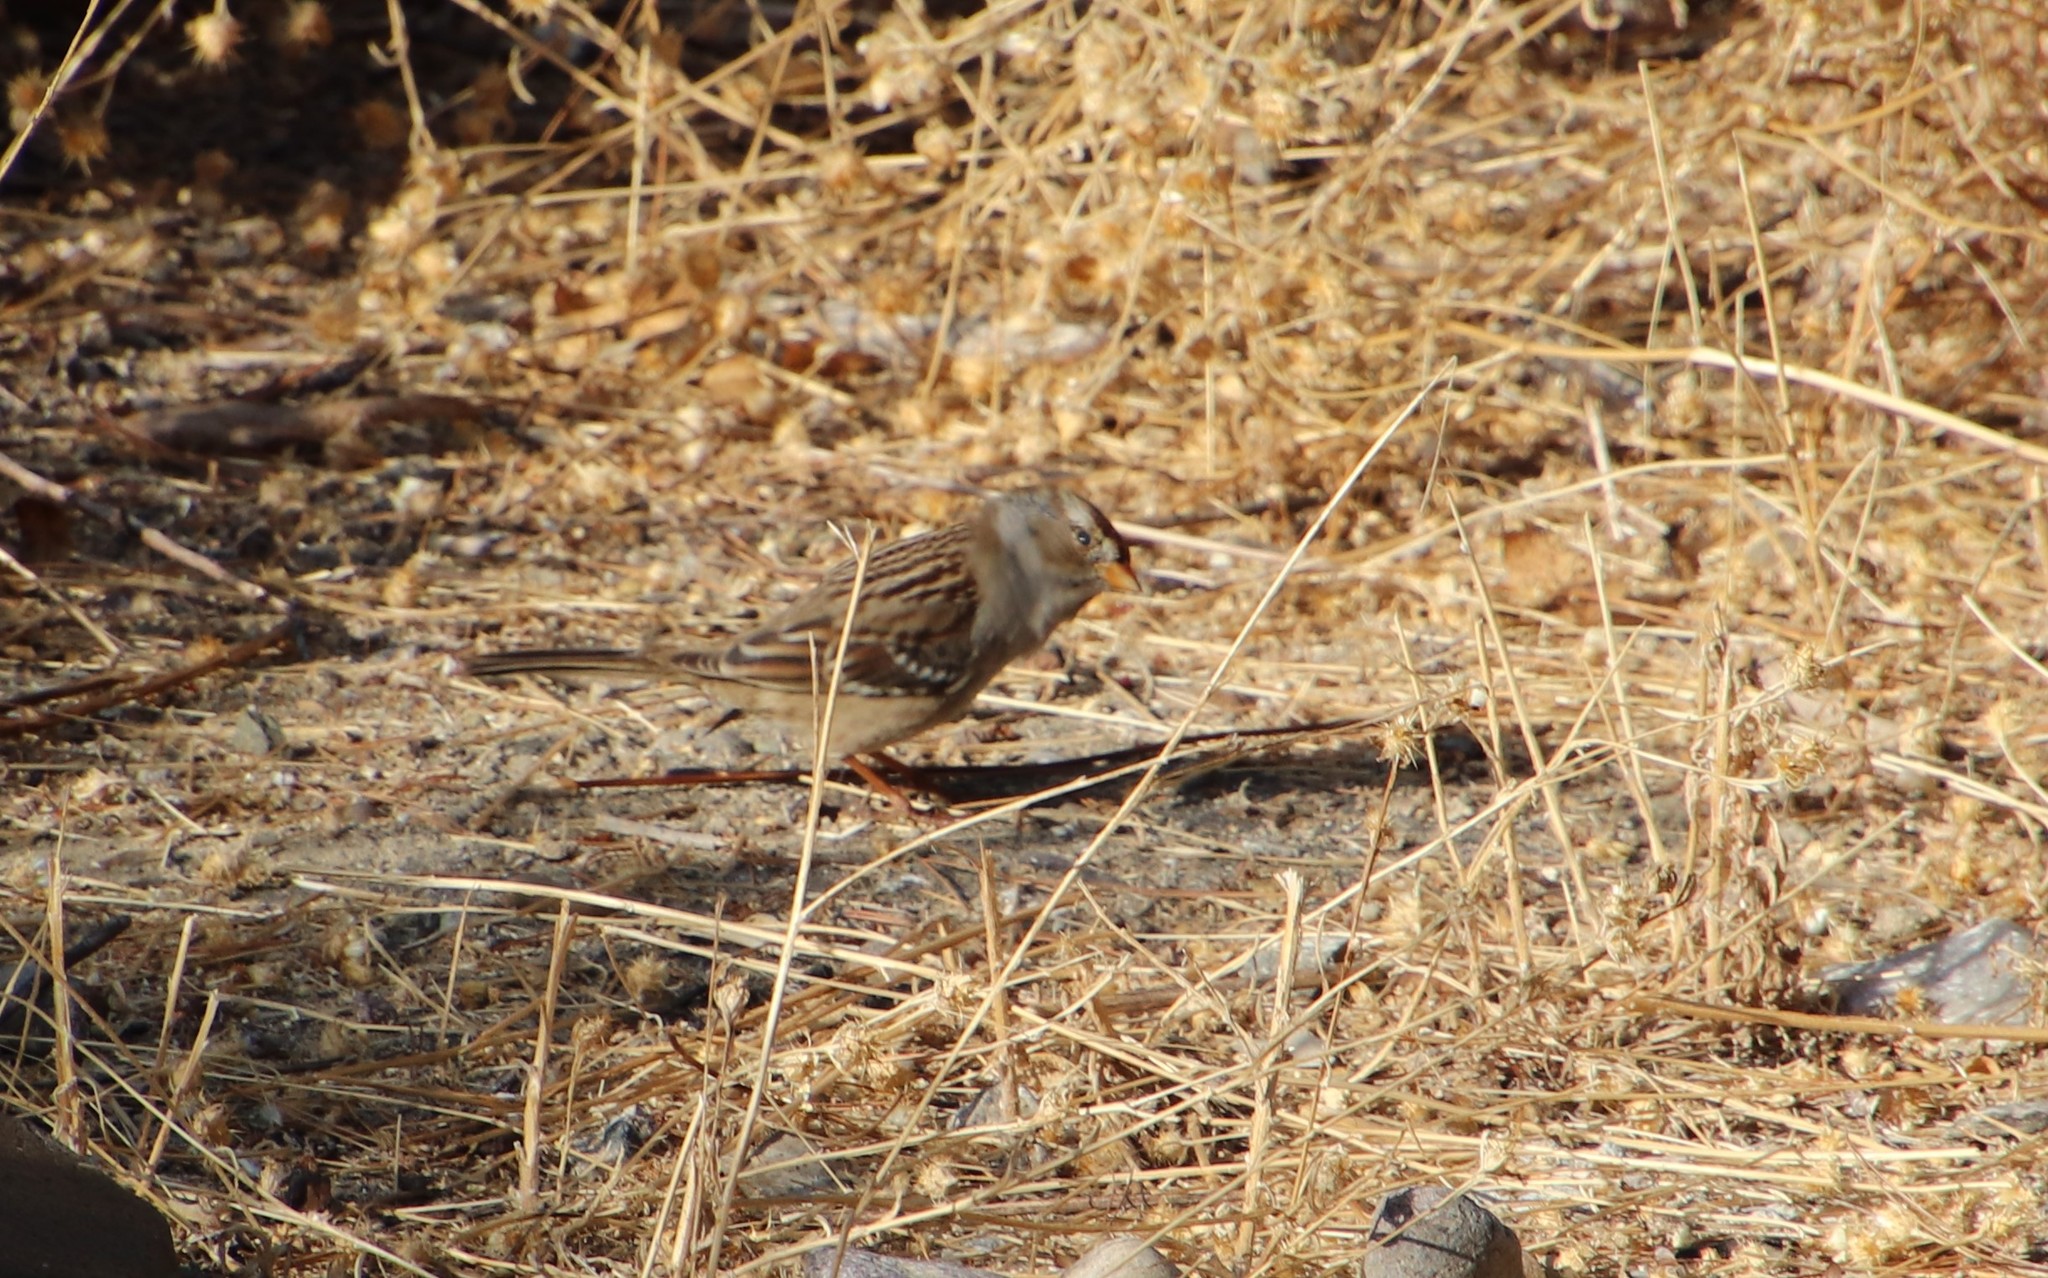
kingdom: Animalia
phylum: Chordata
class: Aves
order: Passeriformes
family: Passerellidae
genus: Zonotrichia
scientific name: Zonotrichia leucophrys
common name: White-crowned sparrow
